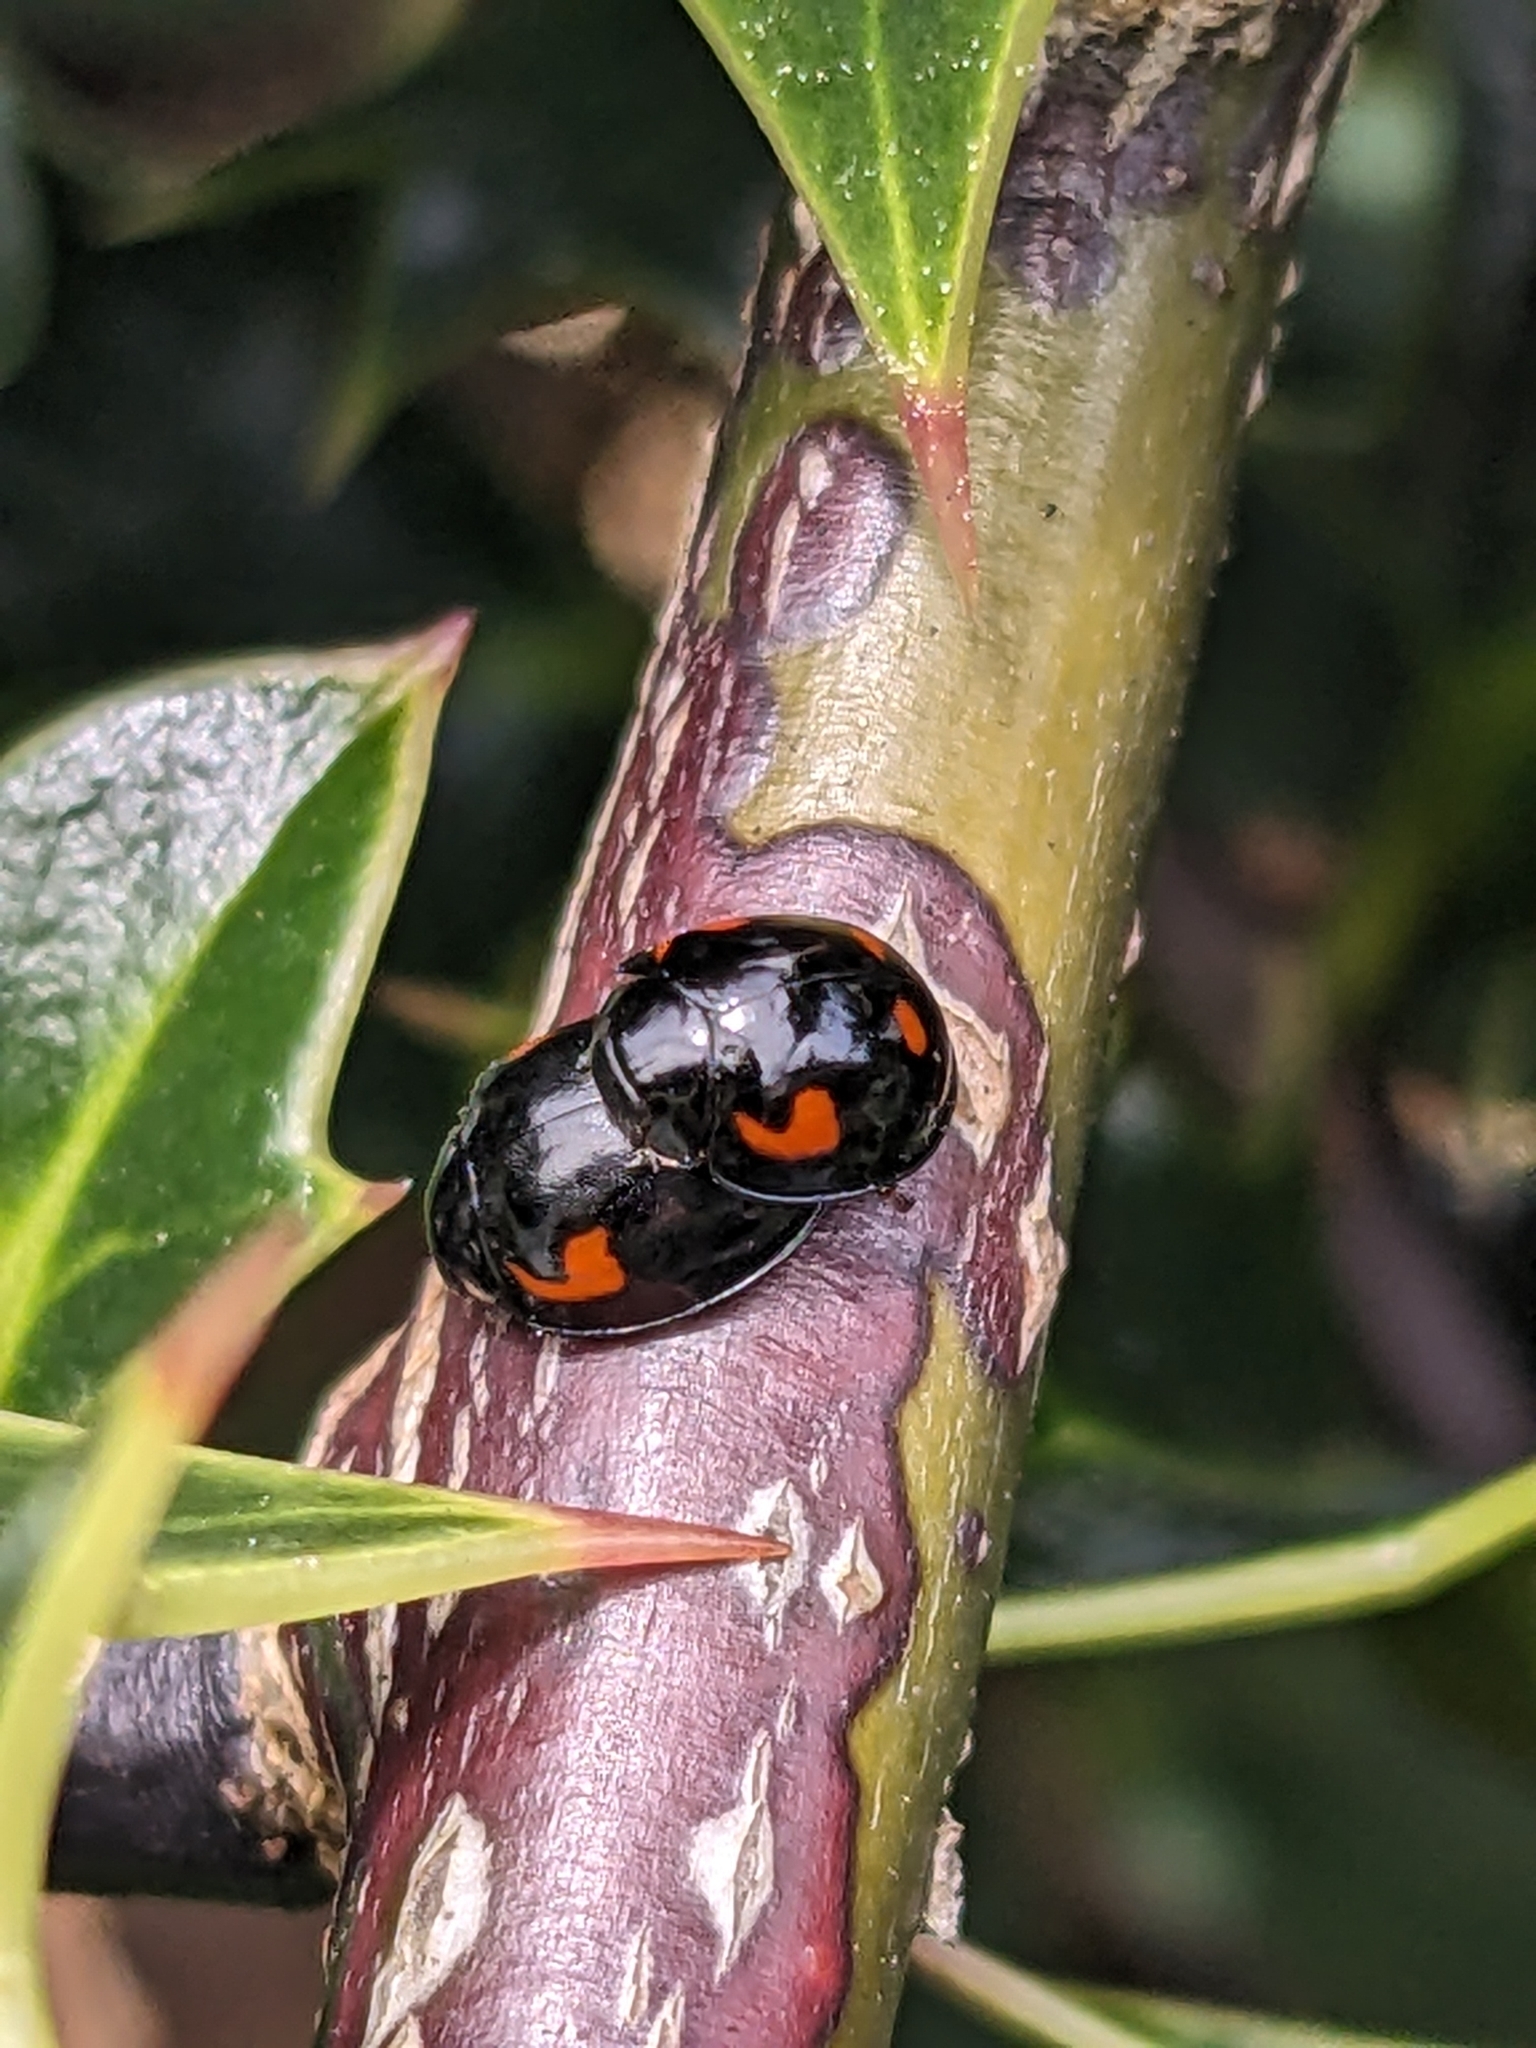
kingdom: Animalia
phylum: Arthropoda
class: Insecta
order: Coleoptera
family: Coccinellidae
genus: Brumus
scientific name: Brumus quadripustulatus
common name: Ladybird beetle
